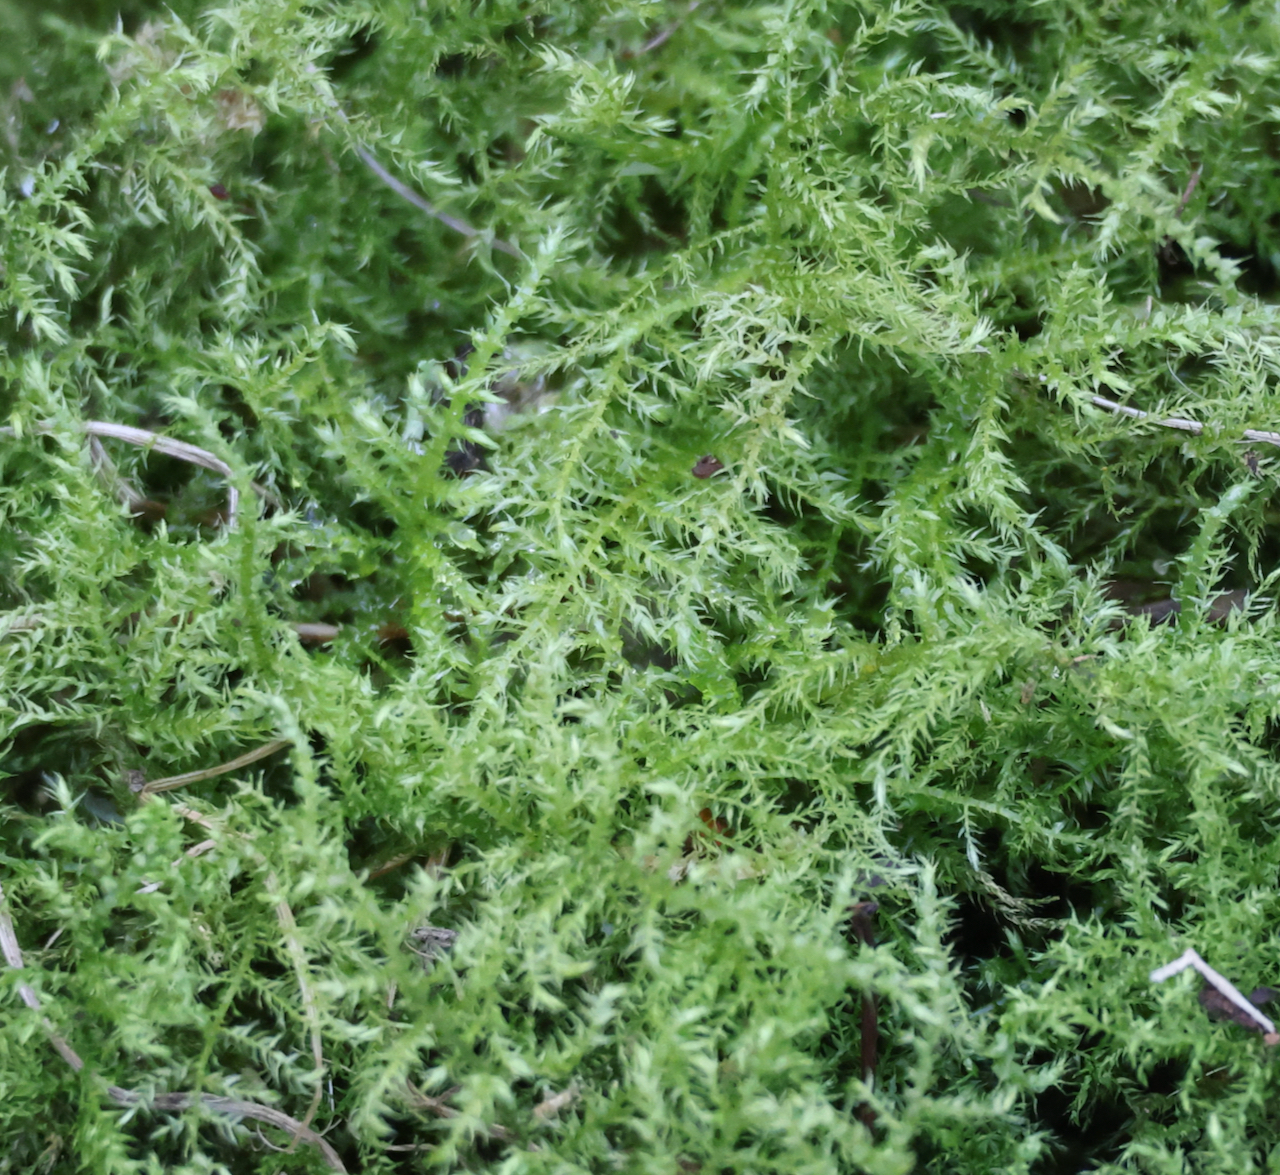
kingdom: Plantae
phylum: Bryophyta
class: Bryopsida
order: Hypnales
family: Brachytheciaceae
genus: Kindbergia
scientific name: Kindbergia praelonga
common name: Slender beaked moss
